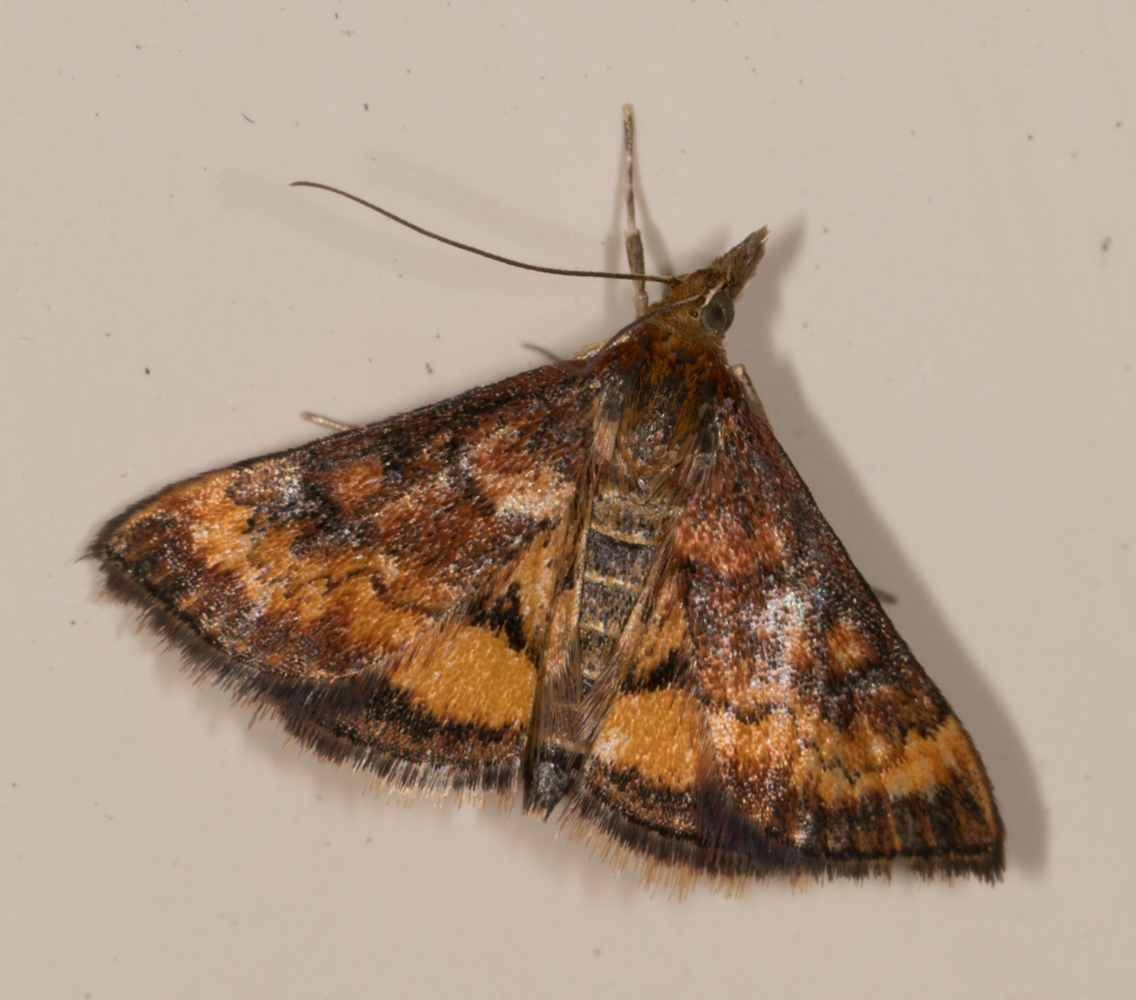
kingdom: Animalia
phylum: Arthropoda
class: Insecta
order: Lepidoptera
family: Crambidae
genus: Pyrausta
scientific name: Pyrausta californicalis
